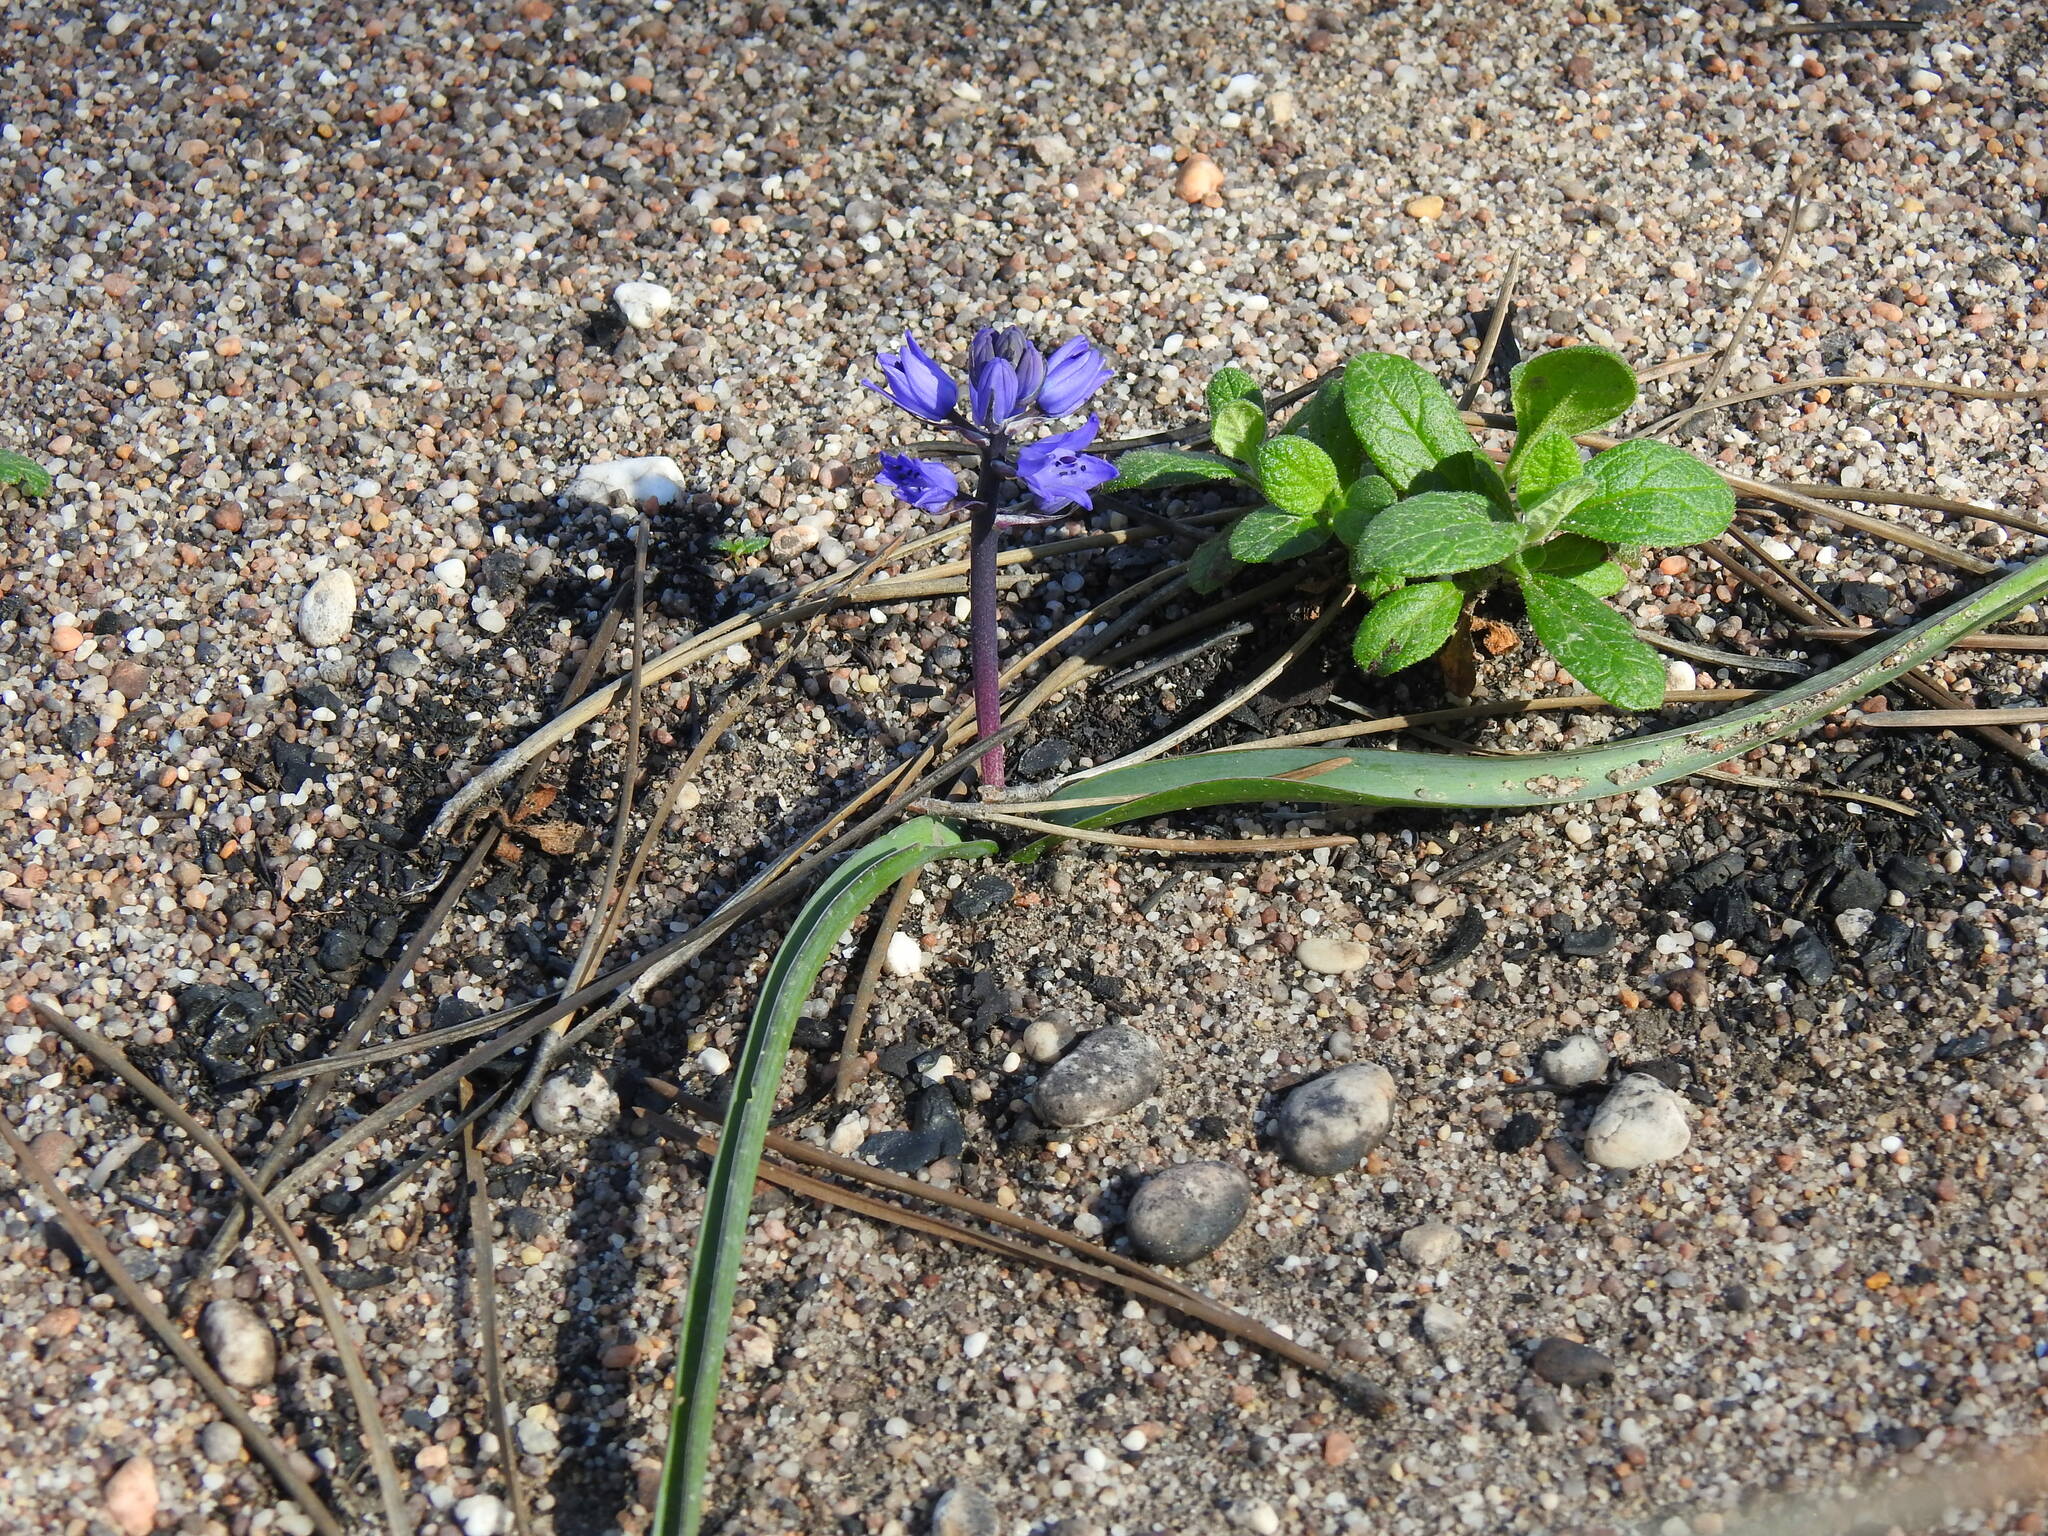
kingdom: Plantae
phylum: Tracheophyta
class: Liliopsida
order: Asparagales
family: Asparagaceae
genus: Scilla
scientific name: Scilla verna
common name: Spring squill
